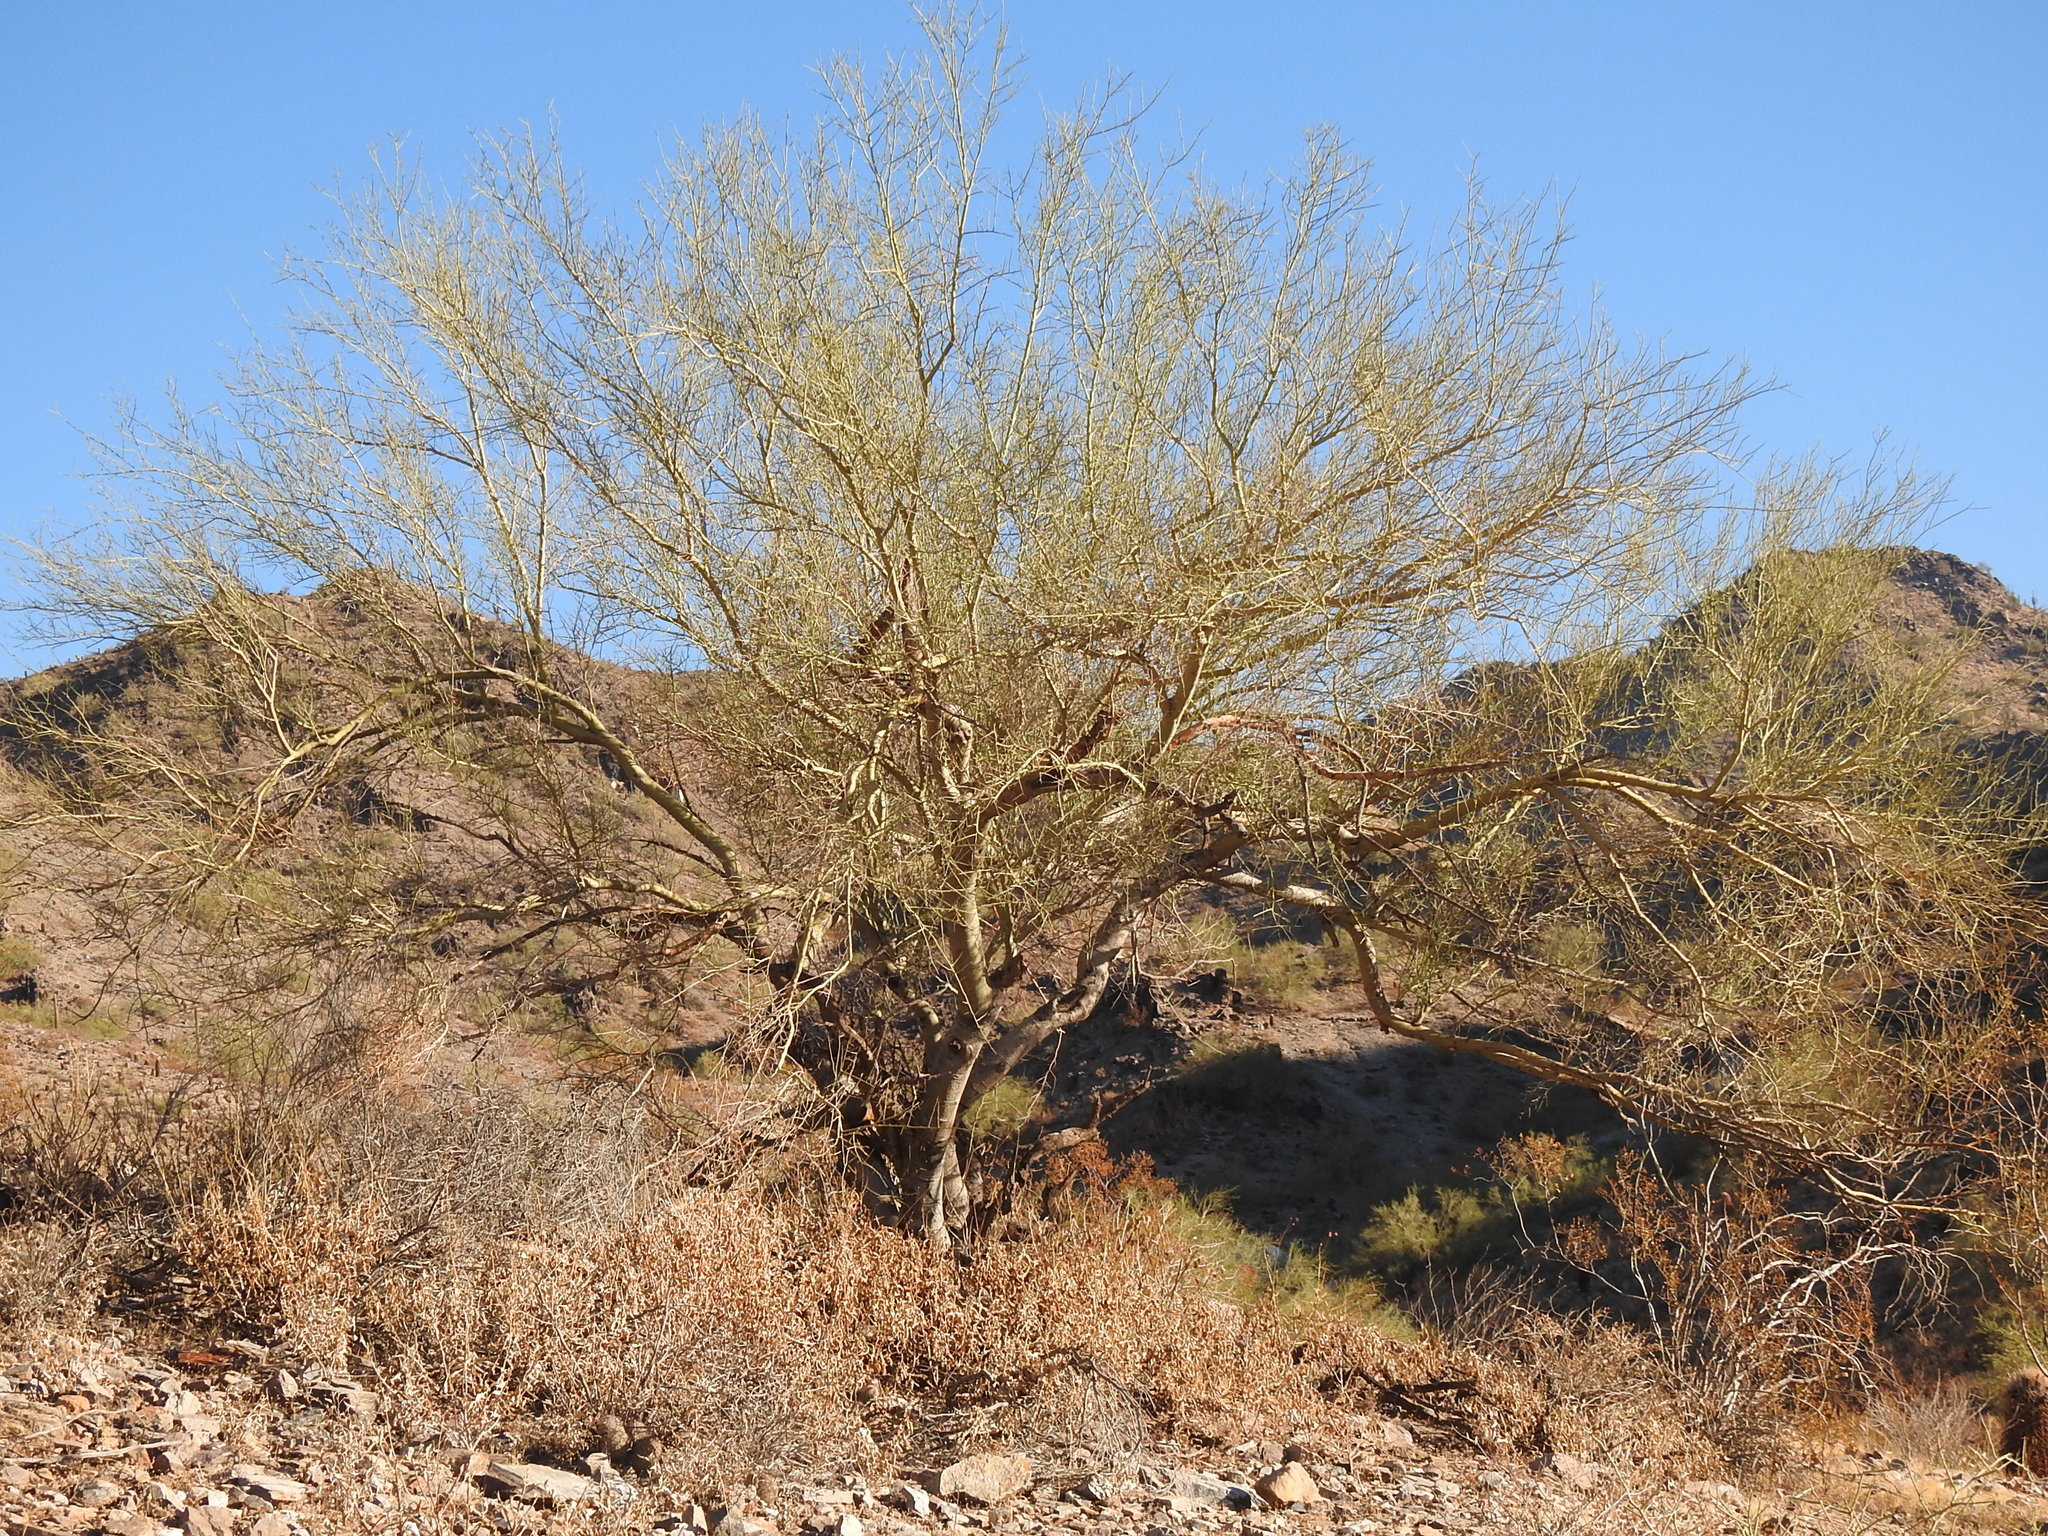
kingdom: Plantae
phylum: Tracheophyta
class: Magnoliopsida
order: Fabales
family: Fabaceae
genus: Parkinsonia
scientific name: Parkinsonia microphylla
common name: Yellow paloverde
